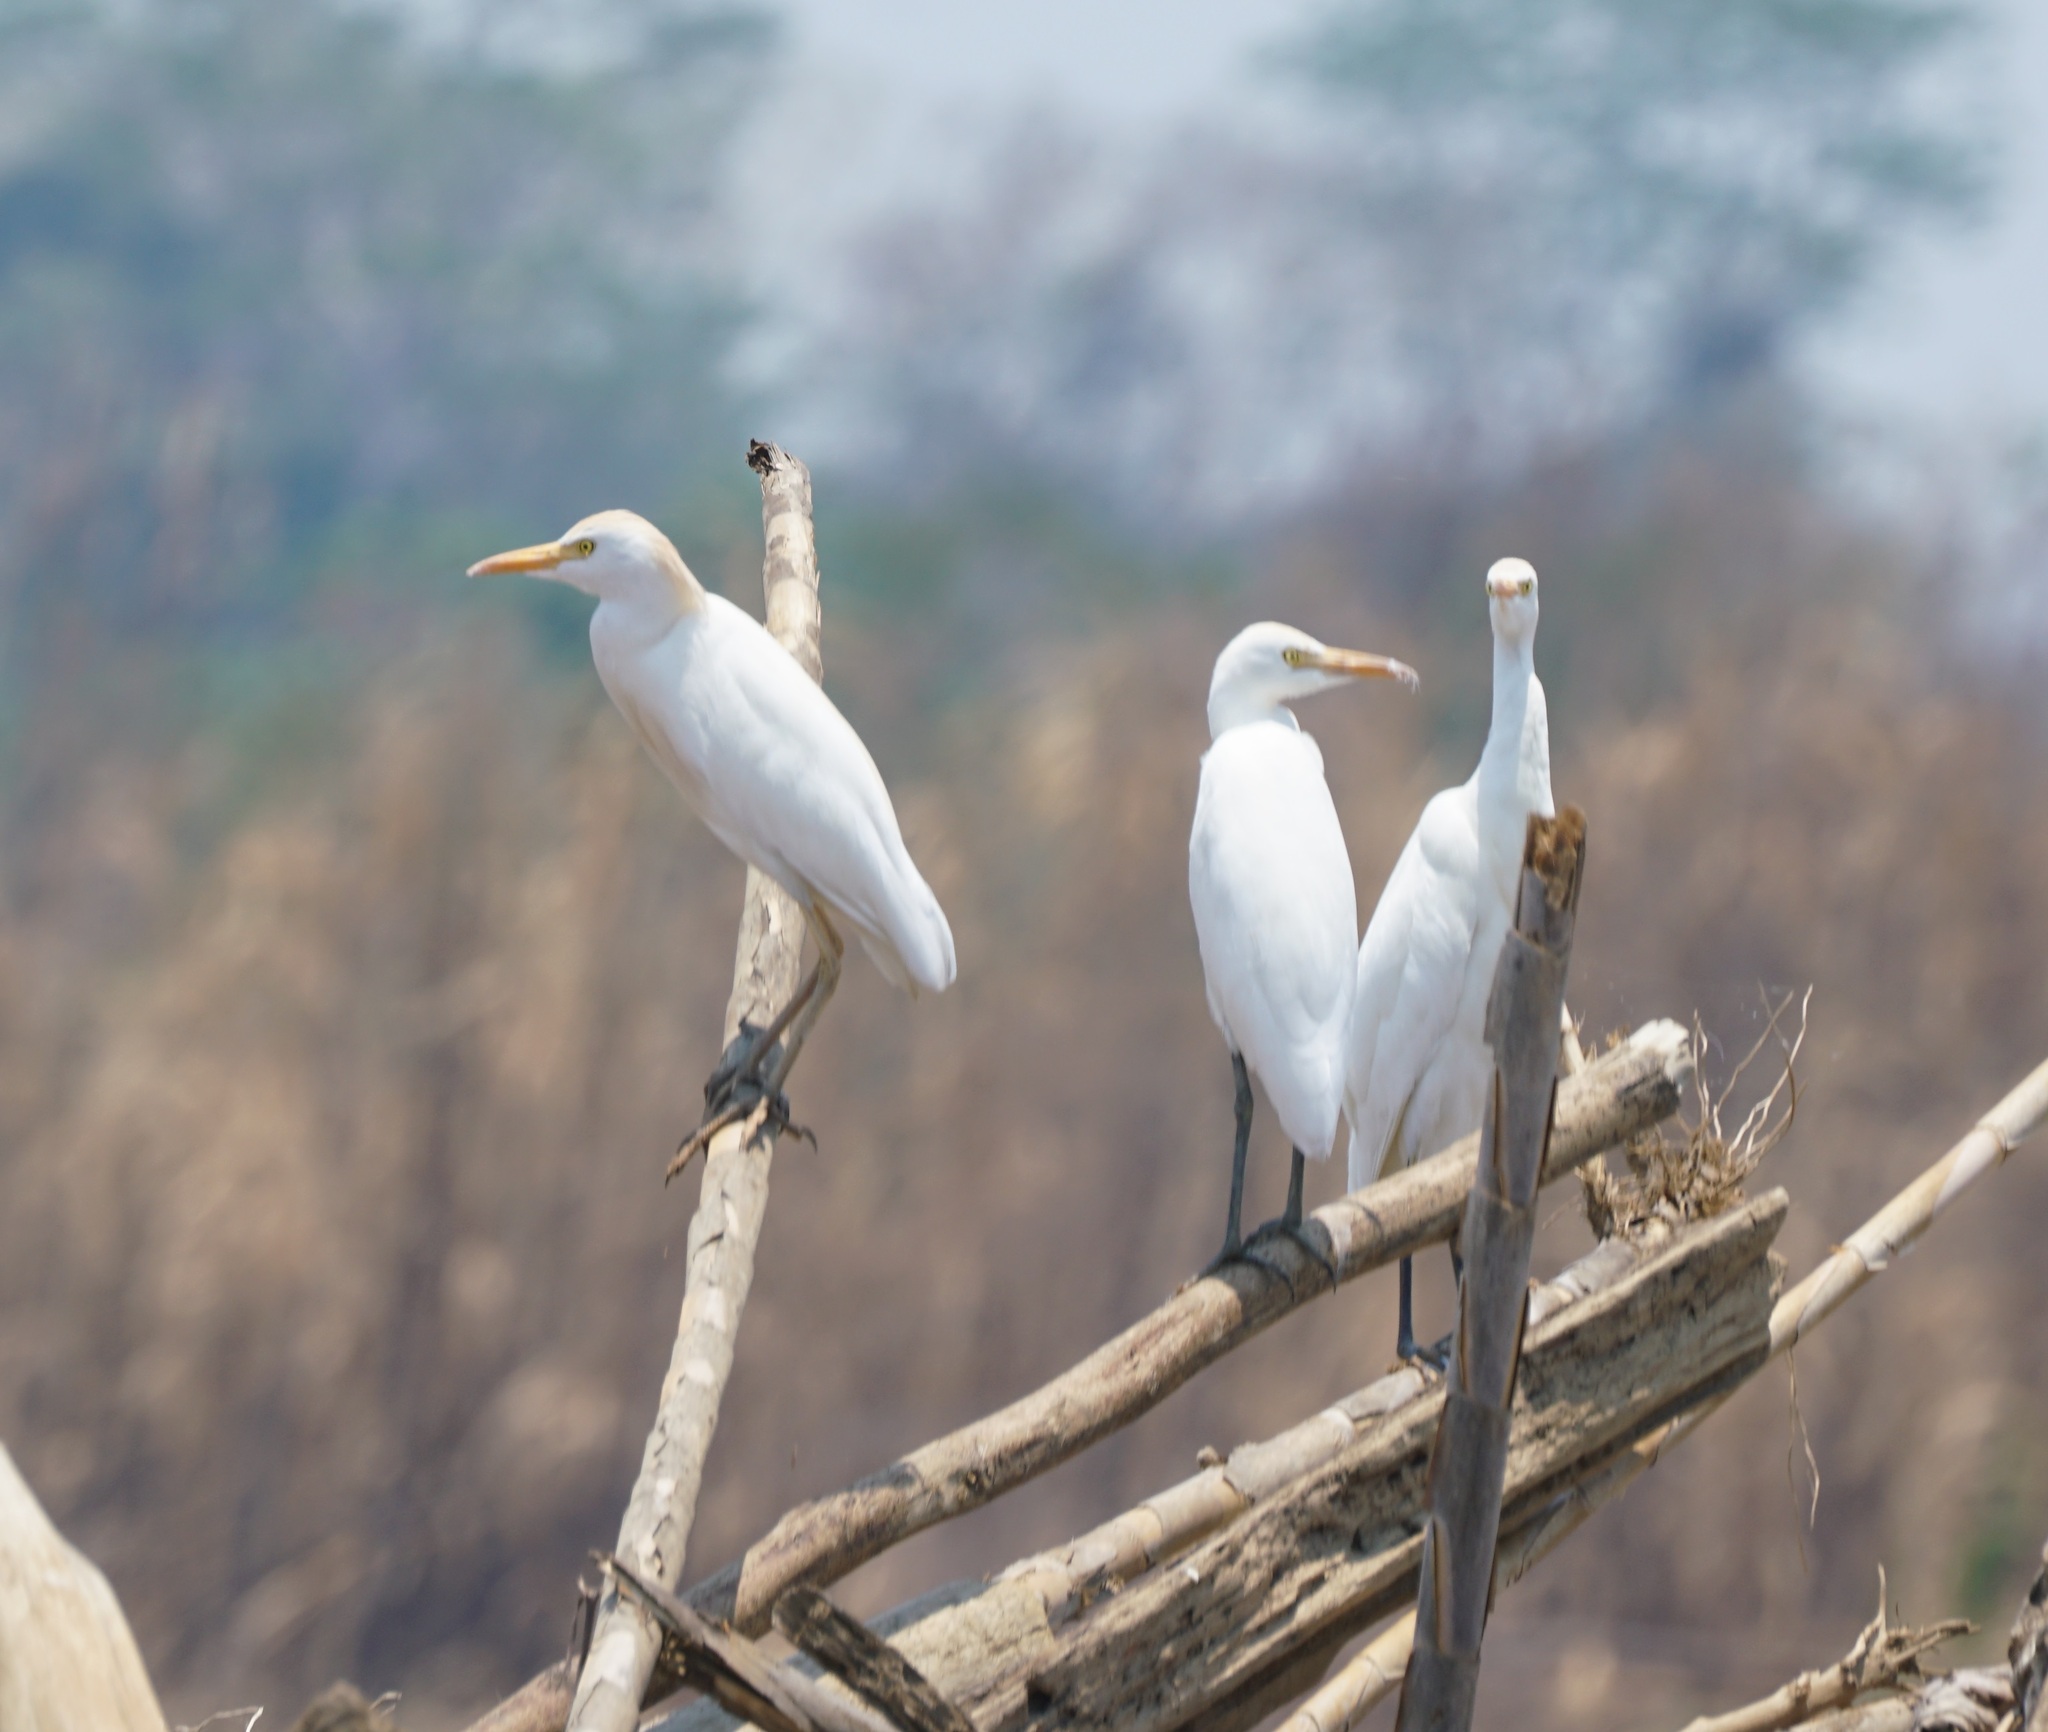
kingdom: Animalia
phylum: Chordata
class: Aves
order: Pelecaniformes
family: Ardeidae
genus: Bubulcus
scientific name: Bubulcus ibis
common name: Cattle egret
